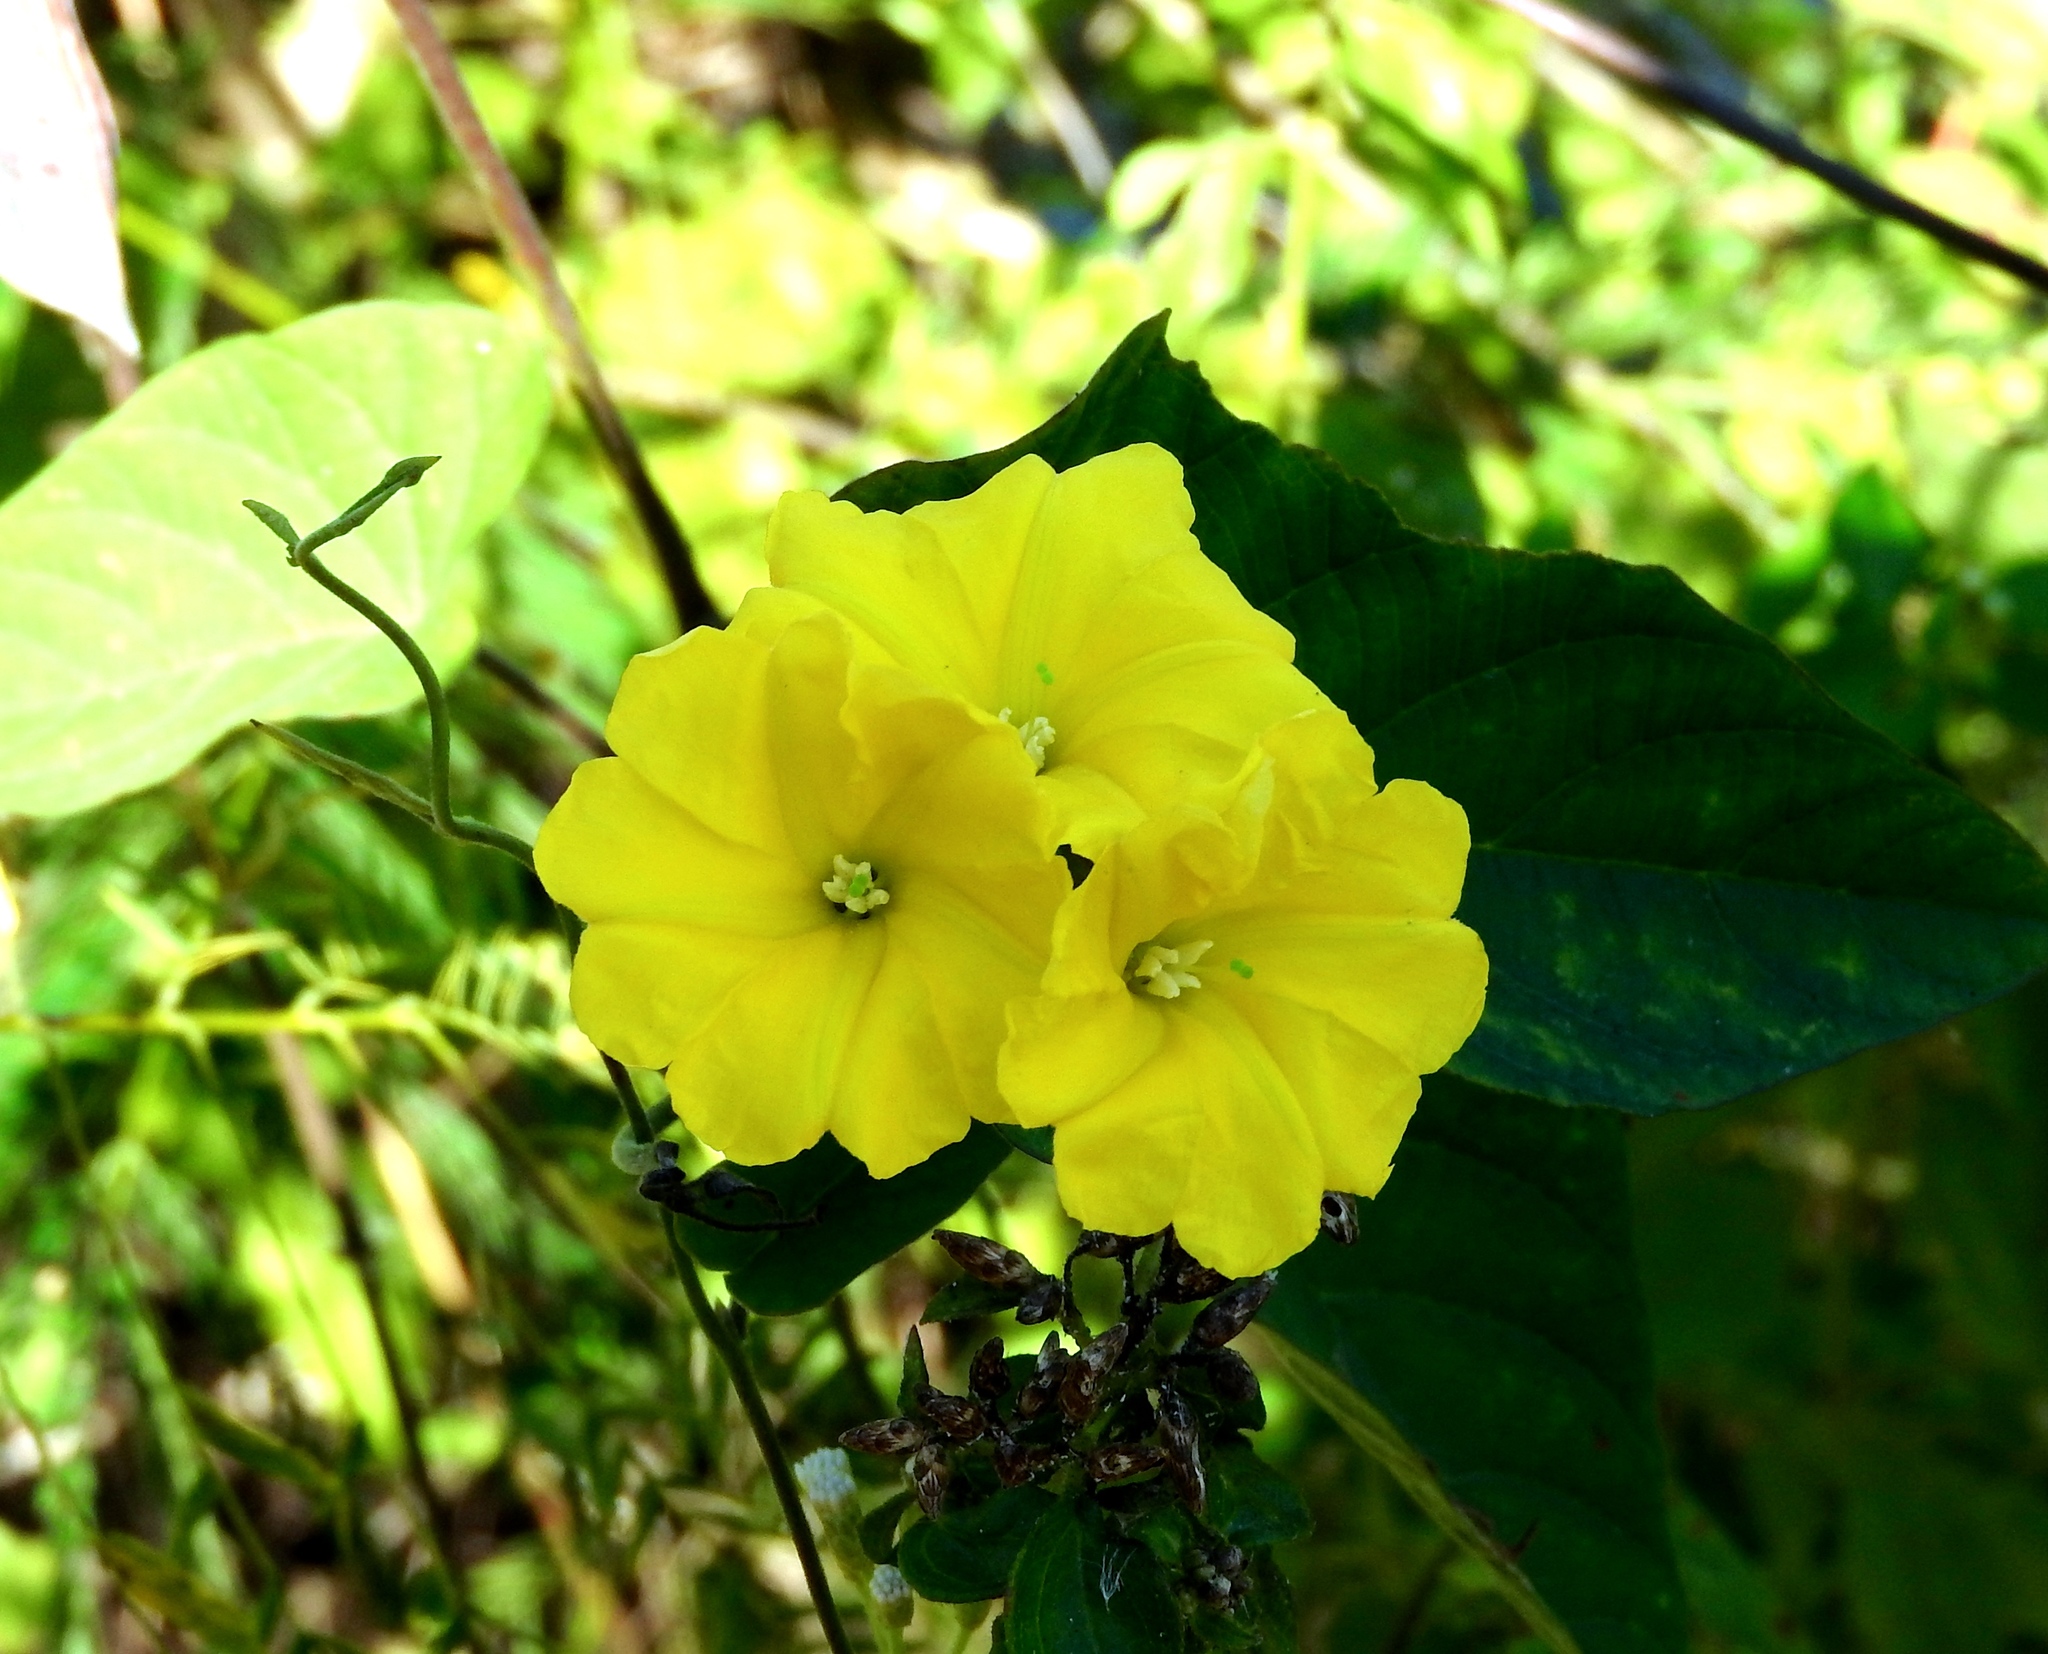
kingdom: Plantae
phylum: Tracheophyta
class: Magnoliopsida
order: Solanales
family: Convolvulaceae
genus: Camonea
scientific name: Camonea umbellata
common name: Hogvine
